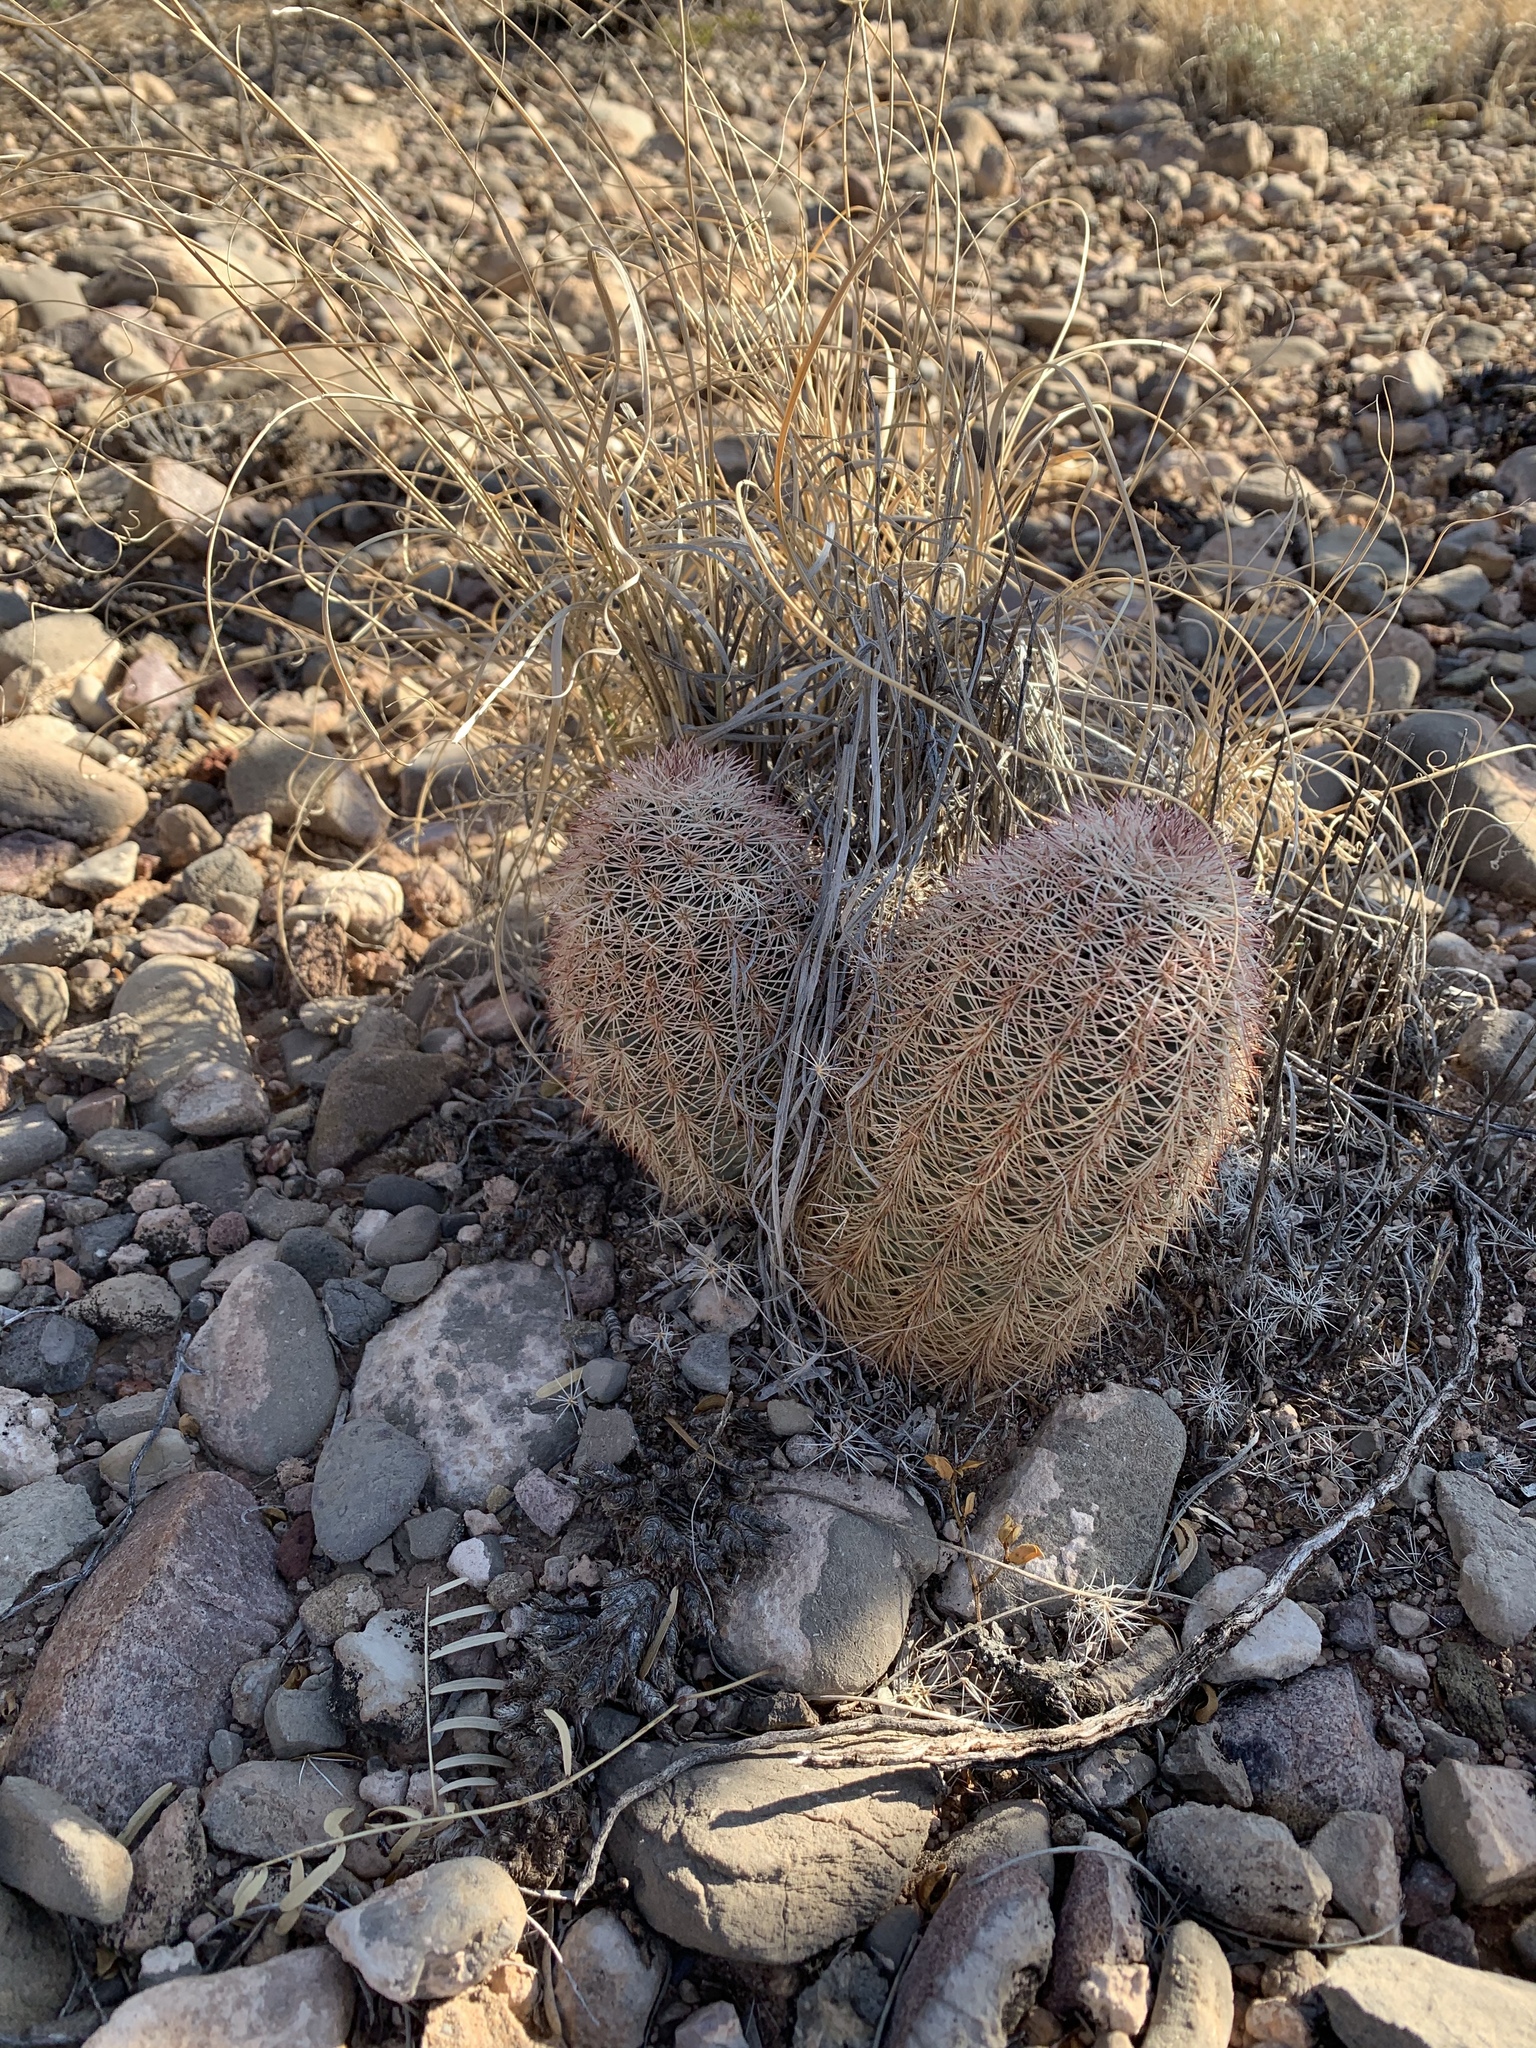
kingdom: Plantae
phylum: Tracheophyta
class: Magnoliopsida
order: Caryophyllales
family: Cactaceae
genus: Echinocereus
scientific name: Echinocereus dasyacanthus
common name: Spiny hedgehog cactus
